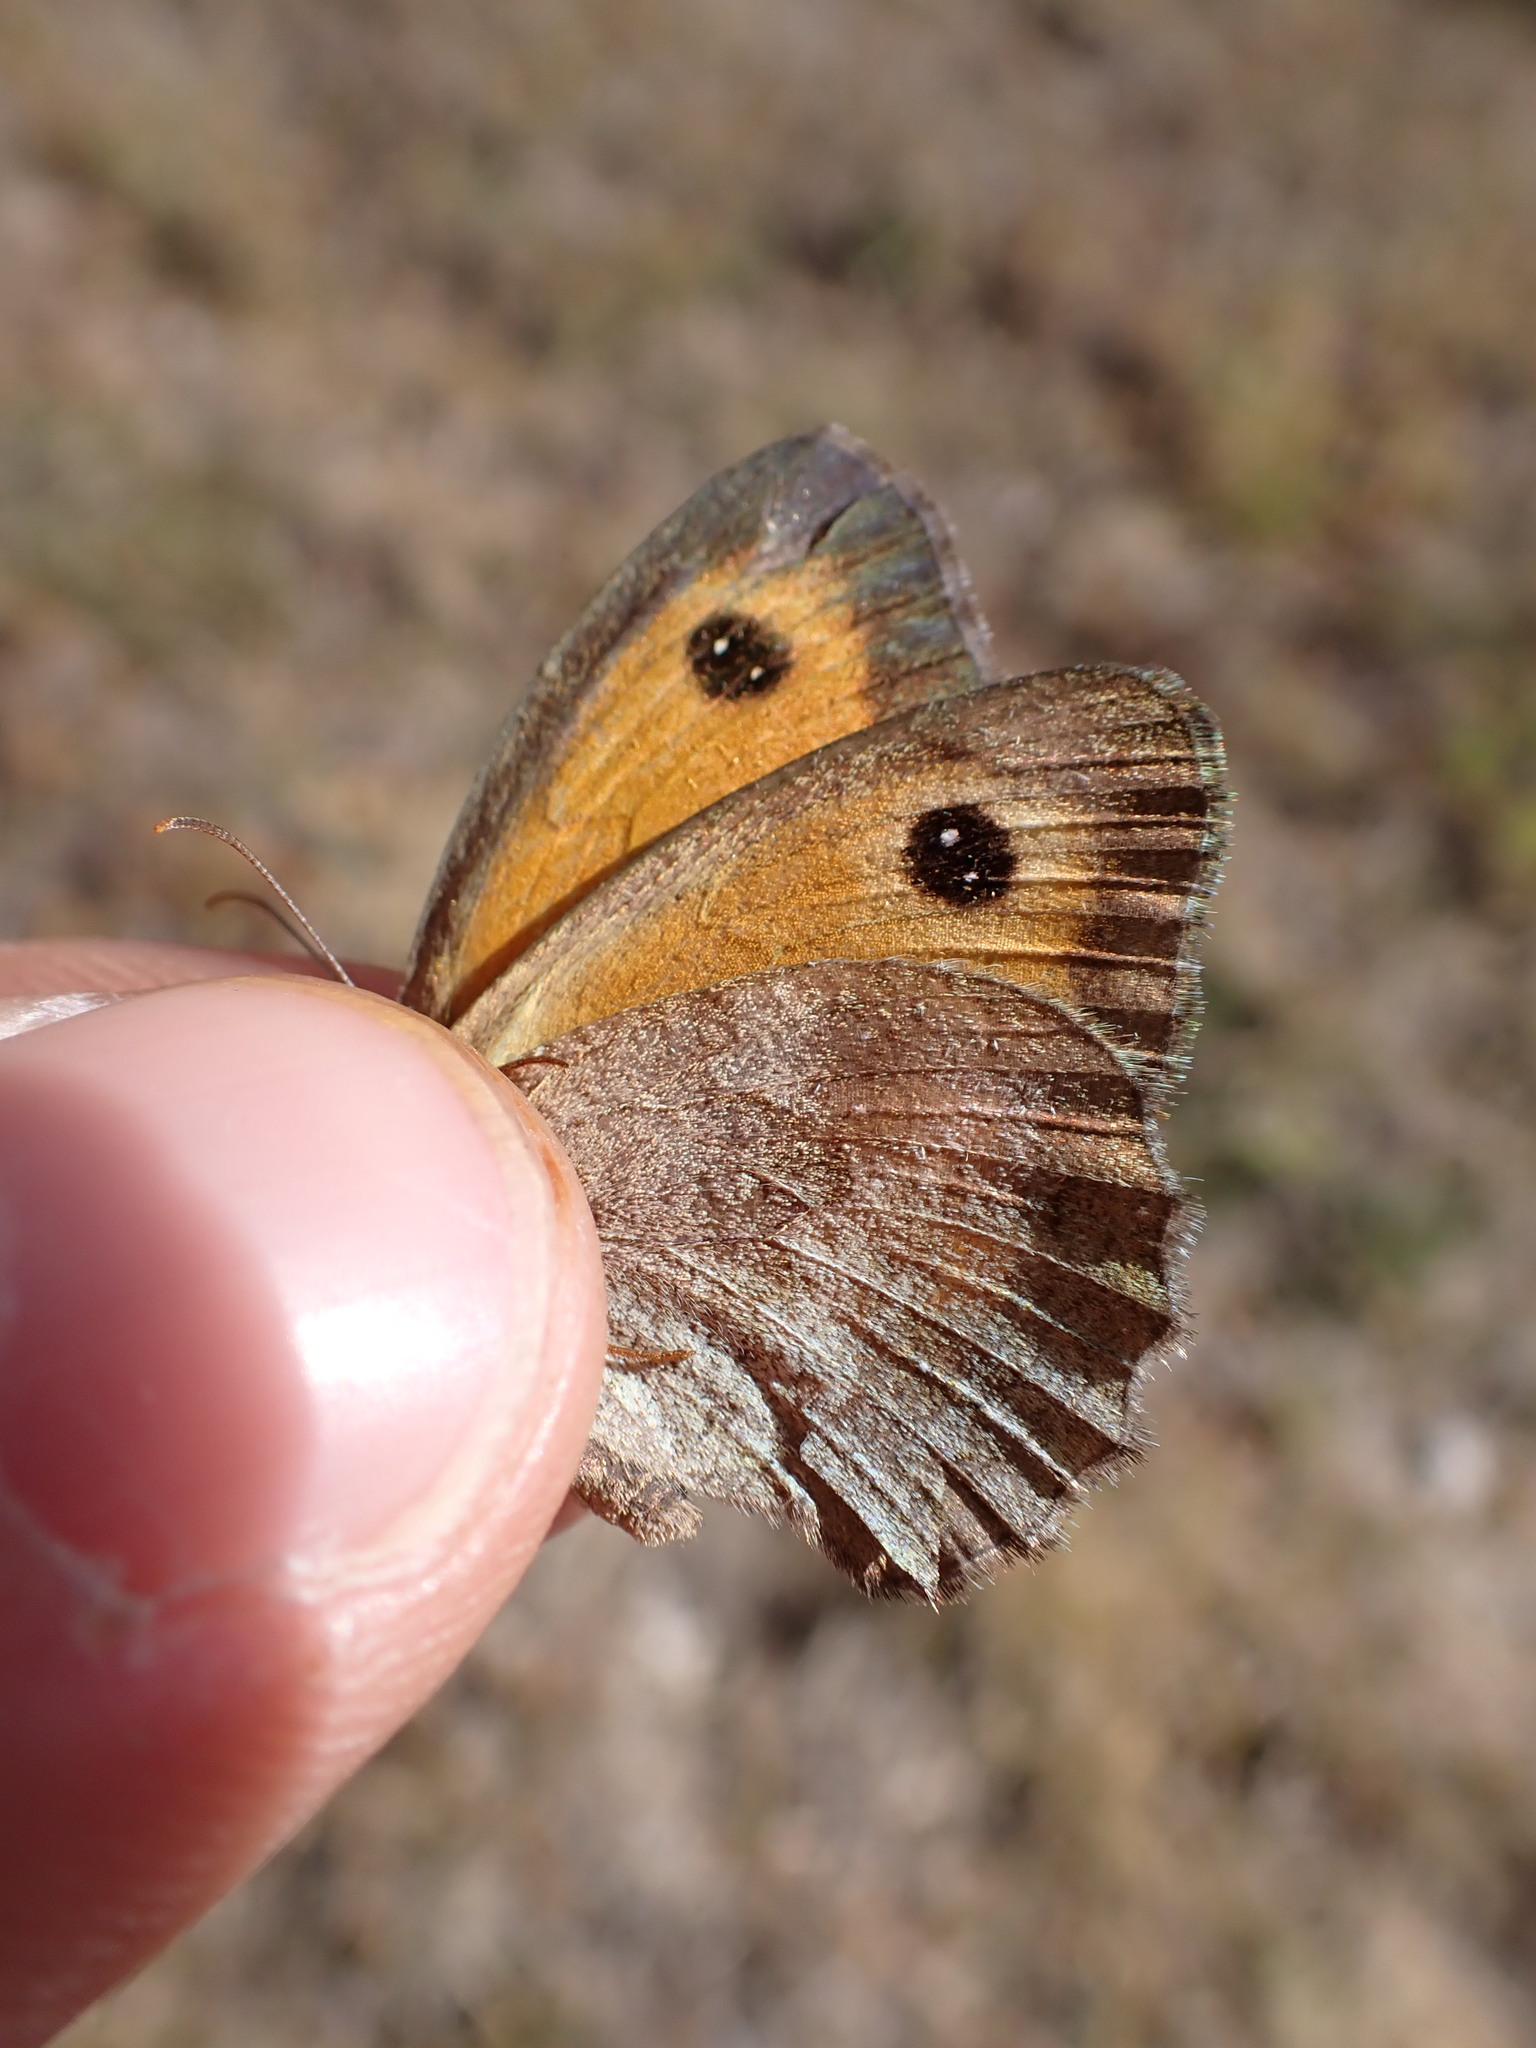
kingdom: Animalia
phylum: Arthropoda
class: Insecta
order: Lepidoptera
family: Nymphalidae
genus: Pyronia
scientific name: Pyronia tithonus
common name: Gatekeeper
